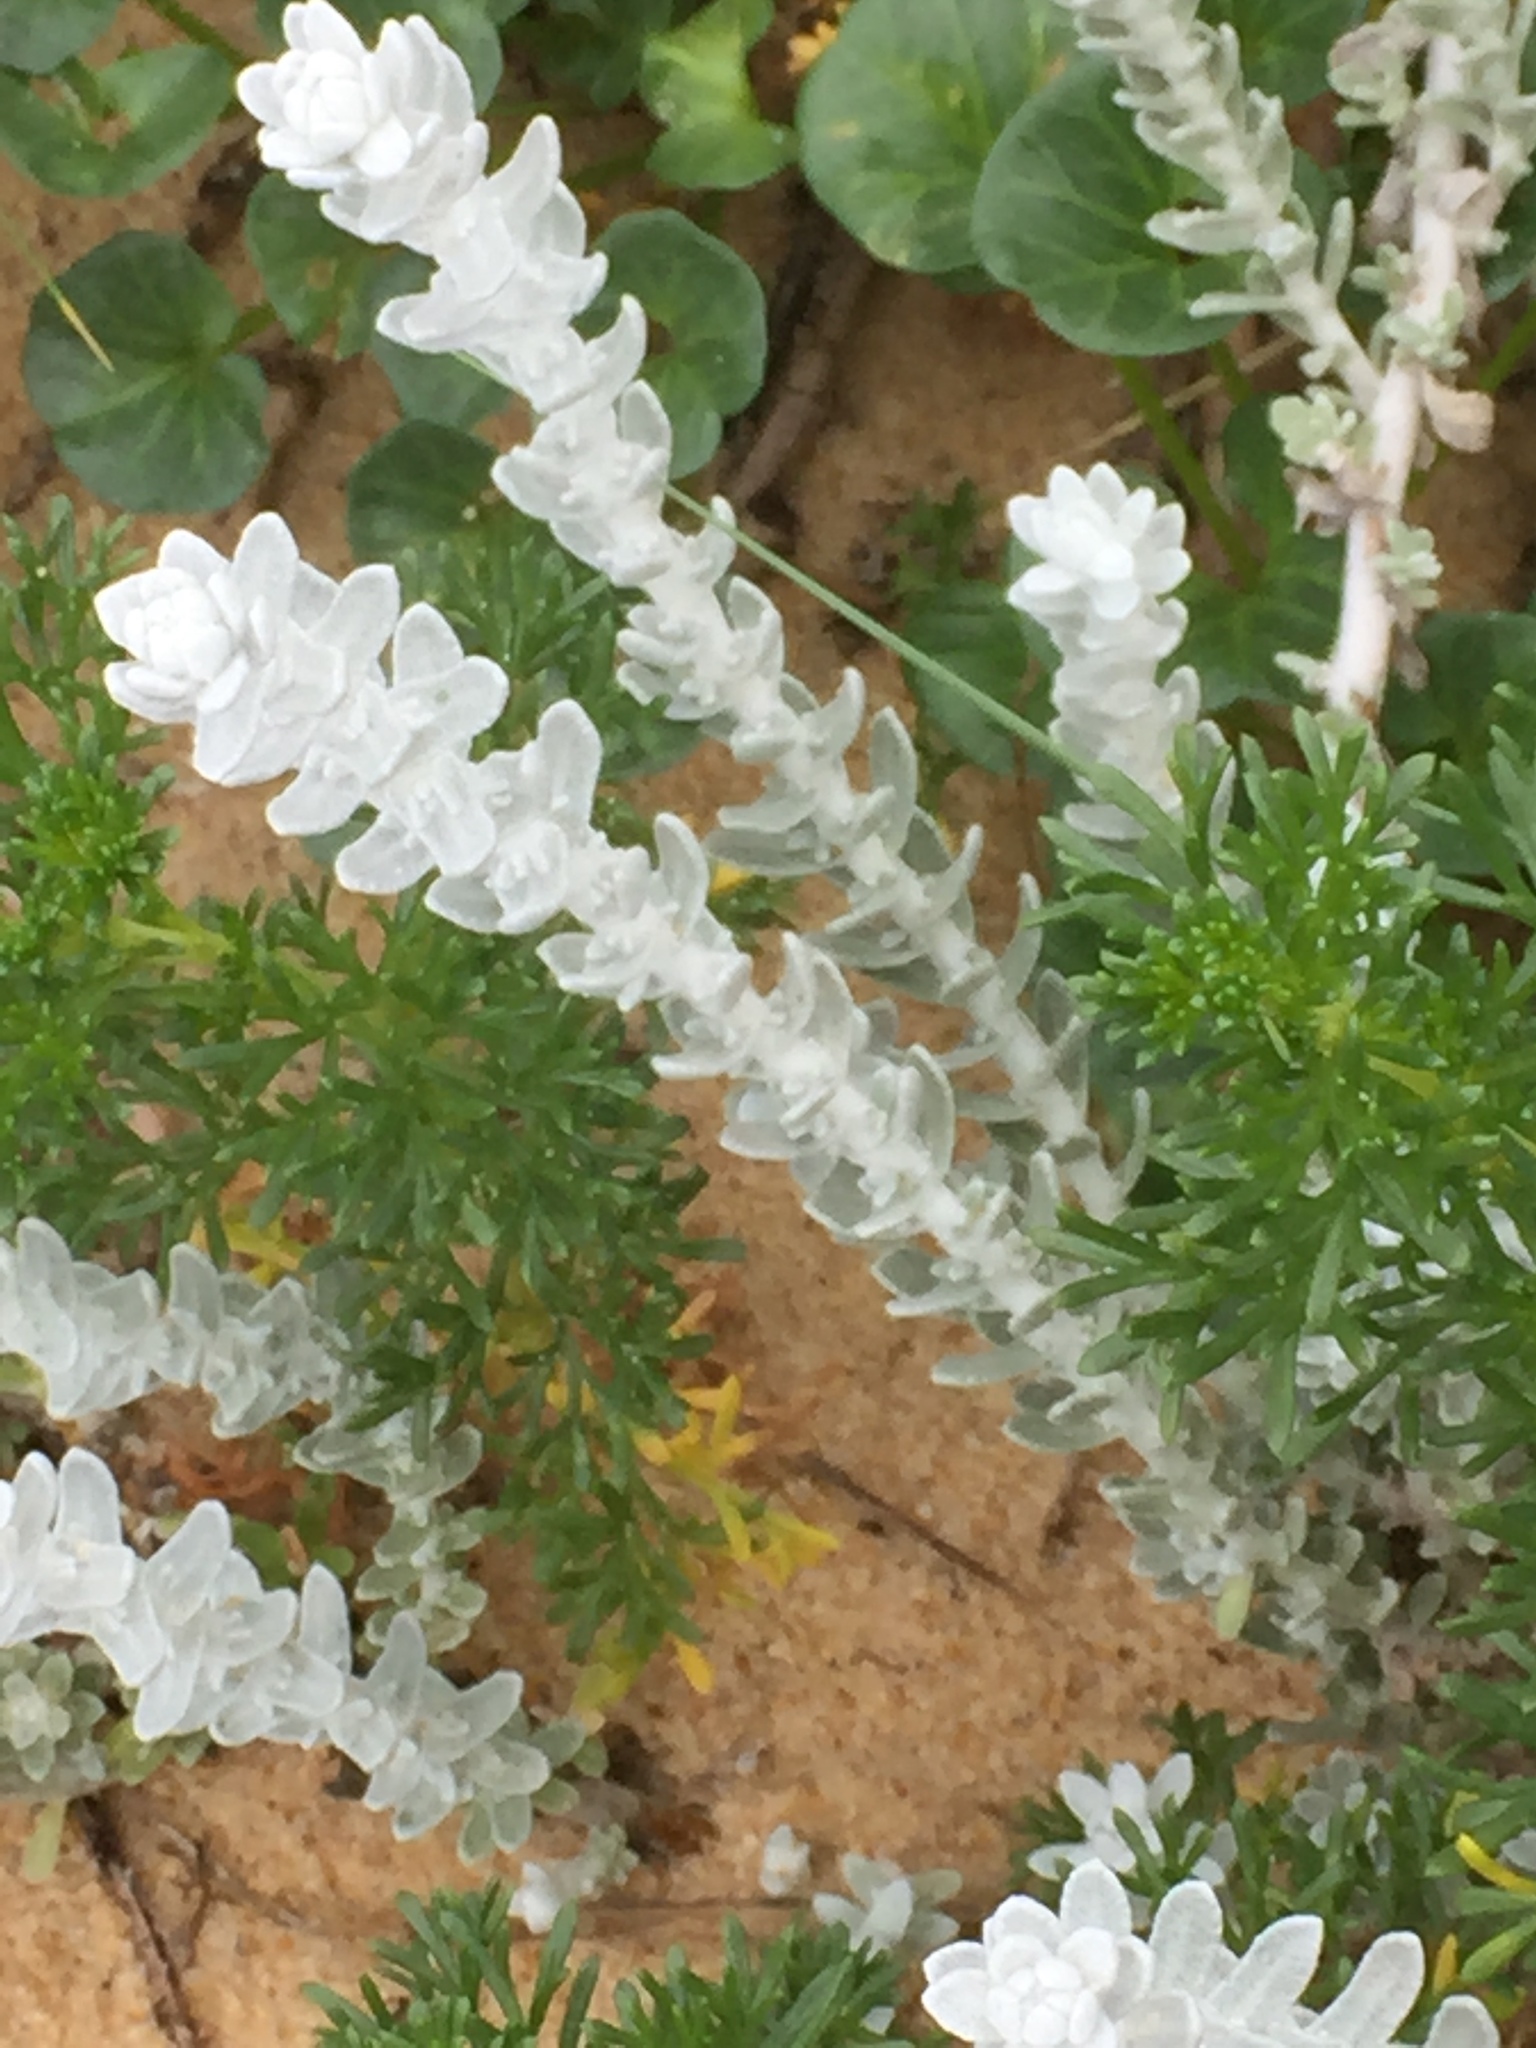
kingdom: Plantae
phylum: Tracheophyta
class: Magnoliopsida
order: Asterales
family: Asteraceae
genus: Achillea
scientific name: Achillea maritima
